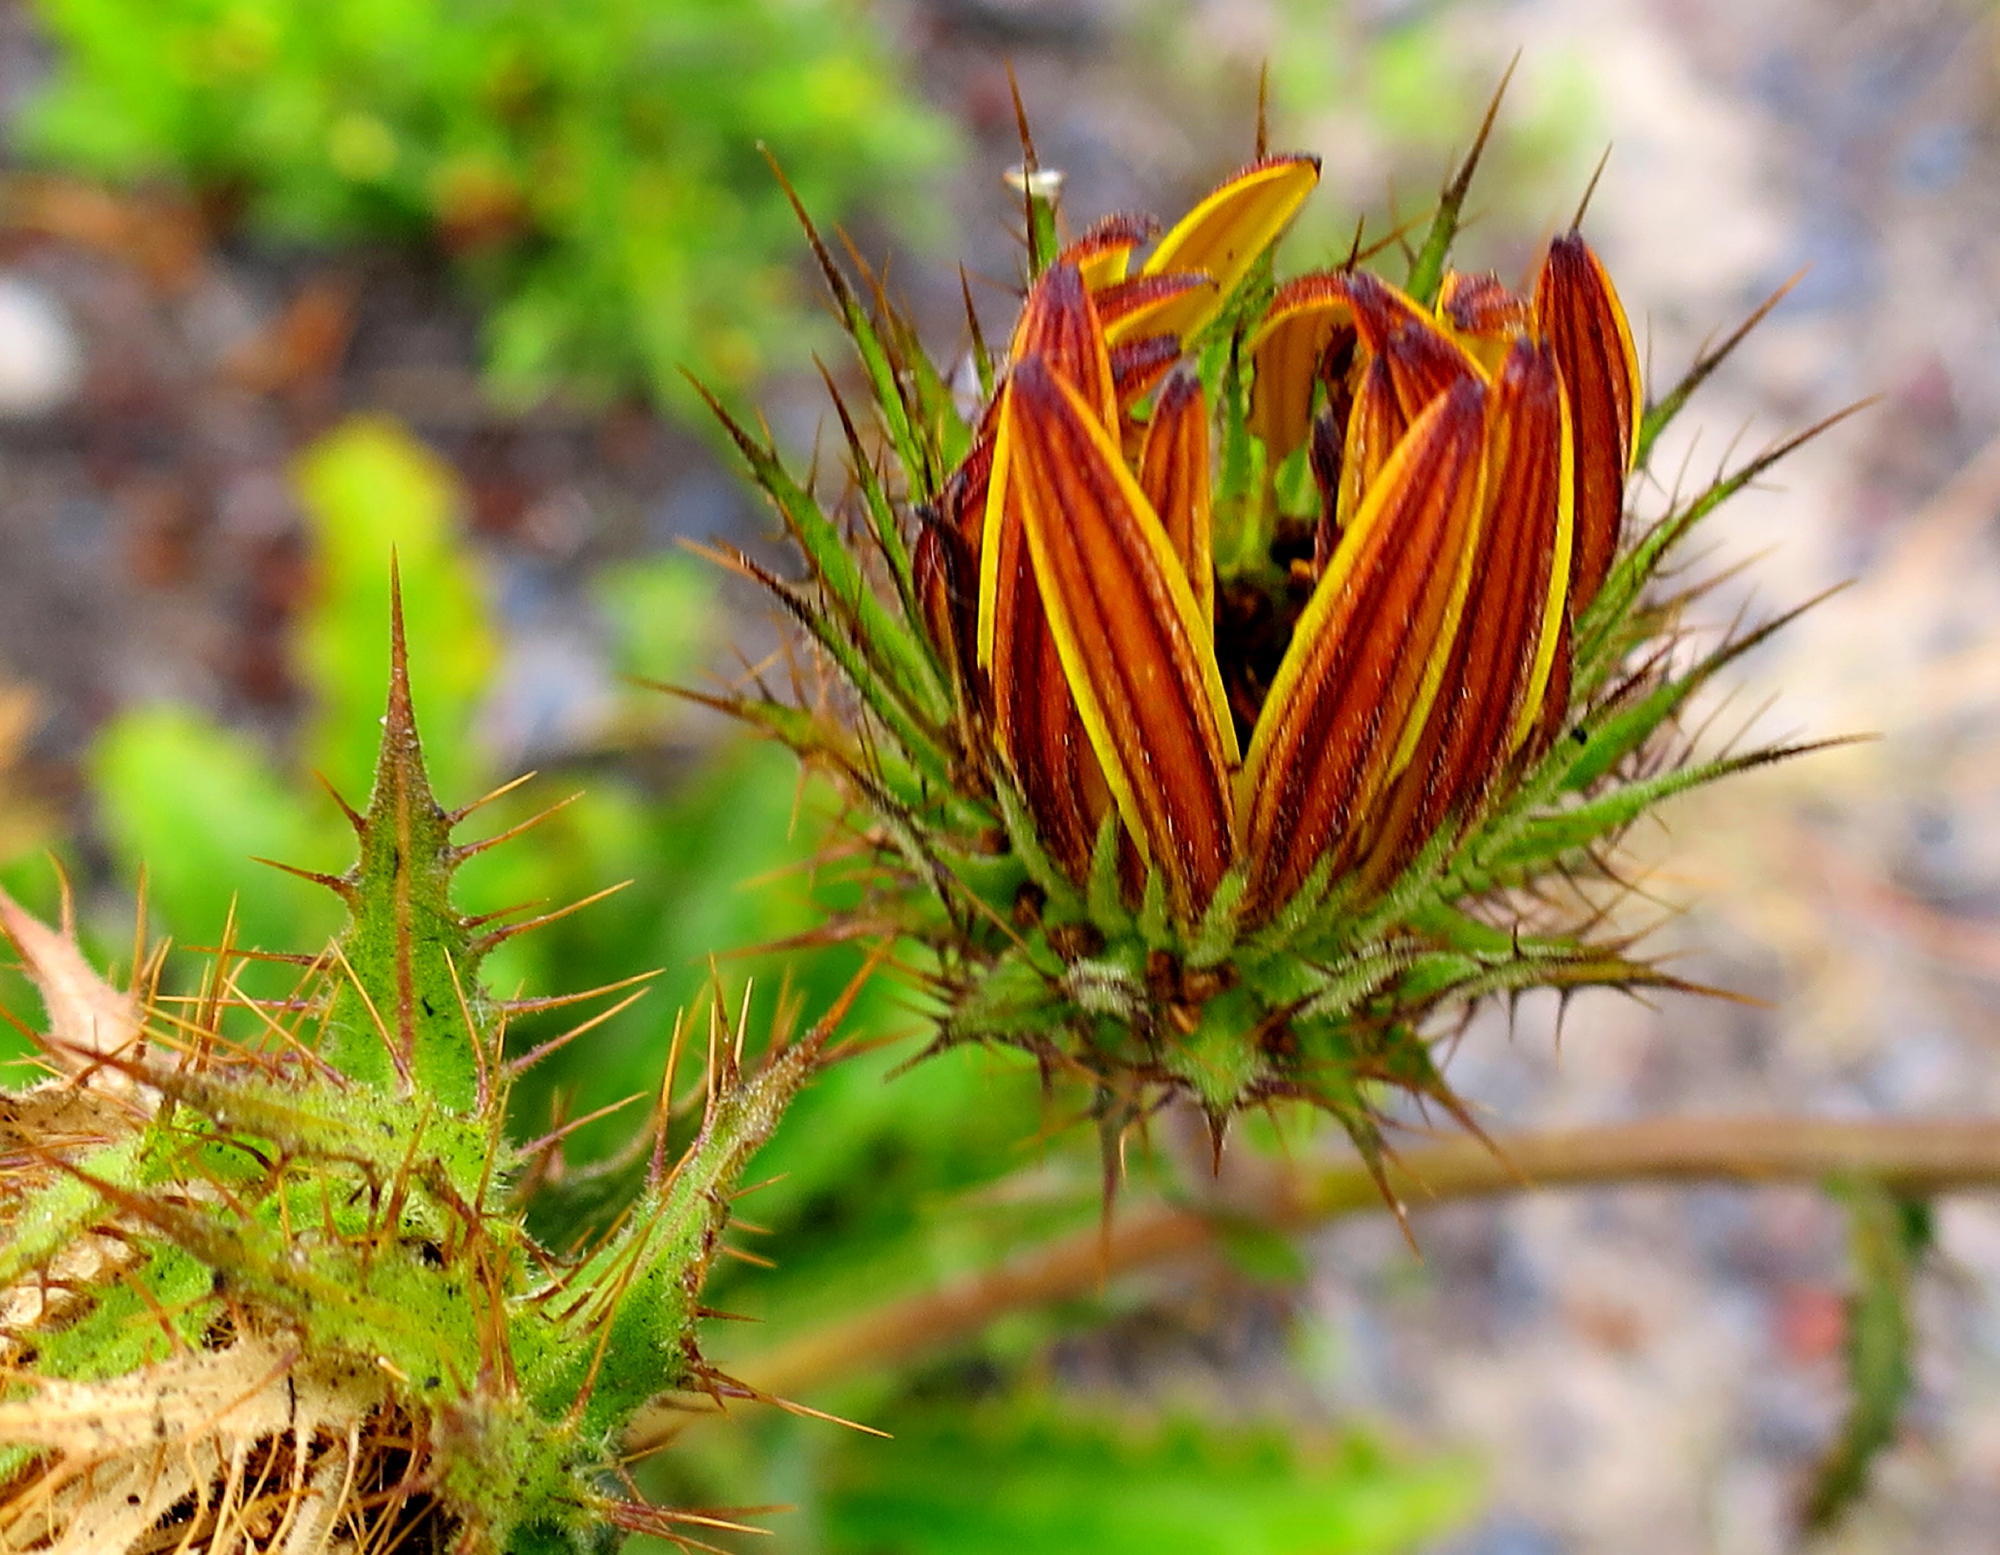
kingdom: Plantae
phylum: Tracheophyta
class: Magnoliopsida
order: Asterales
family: Asteraceae
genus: Berkheya
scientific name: Berkheya carlinoides
